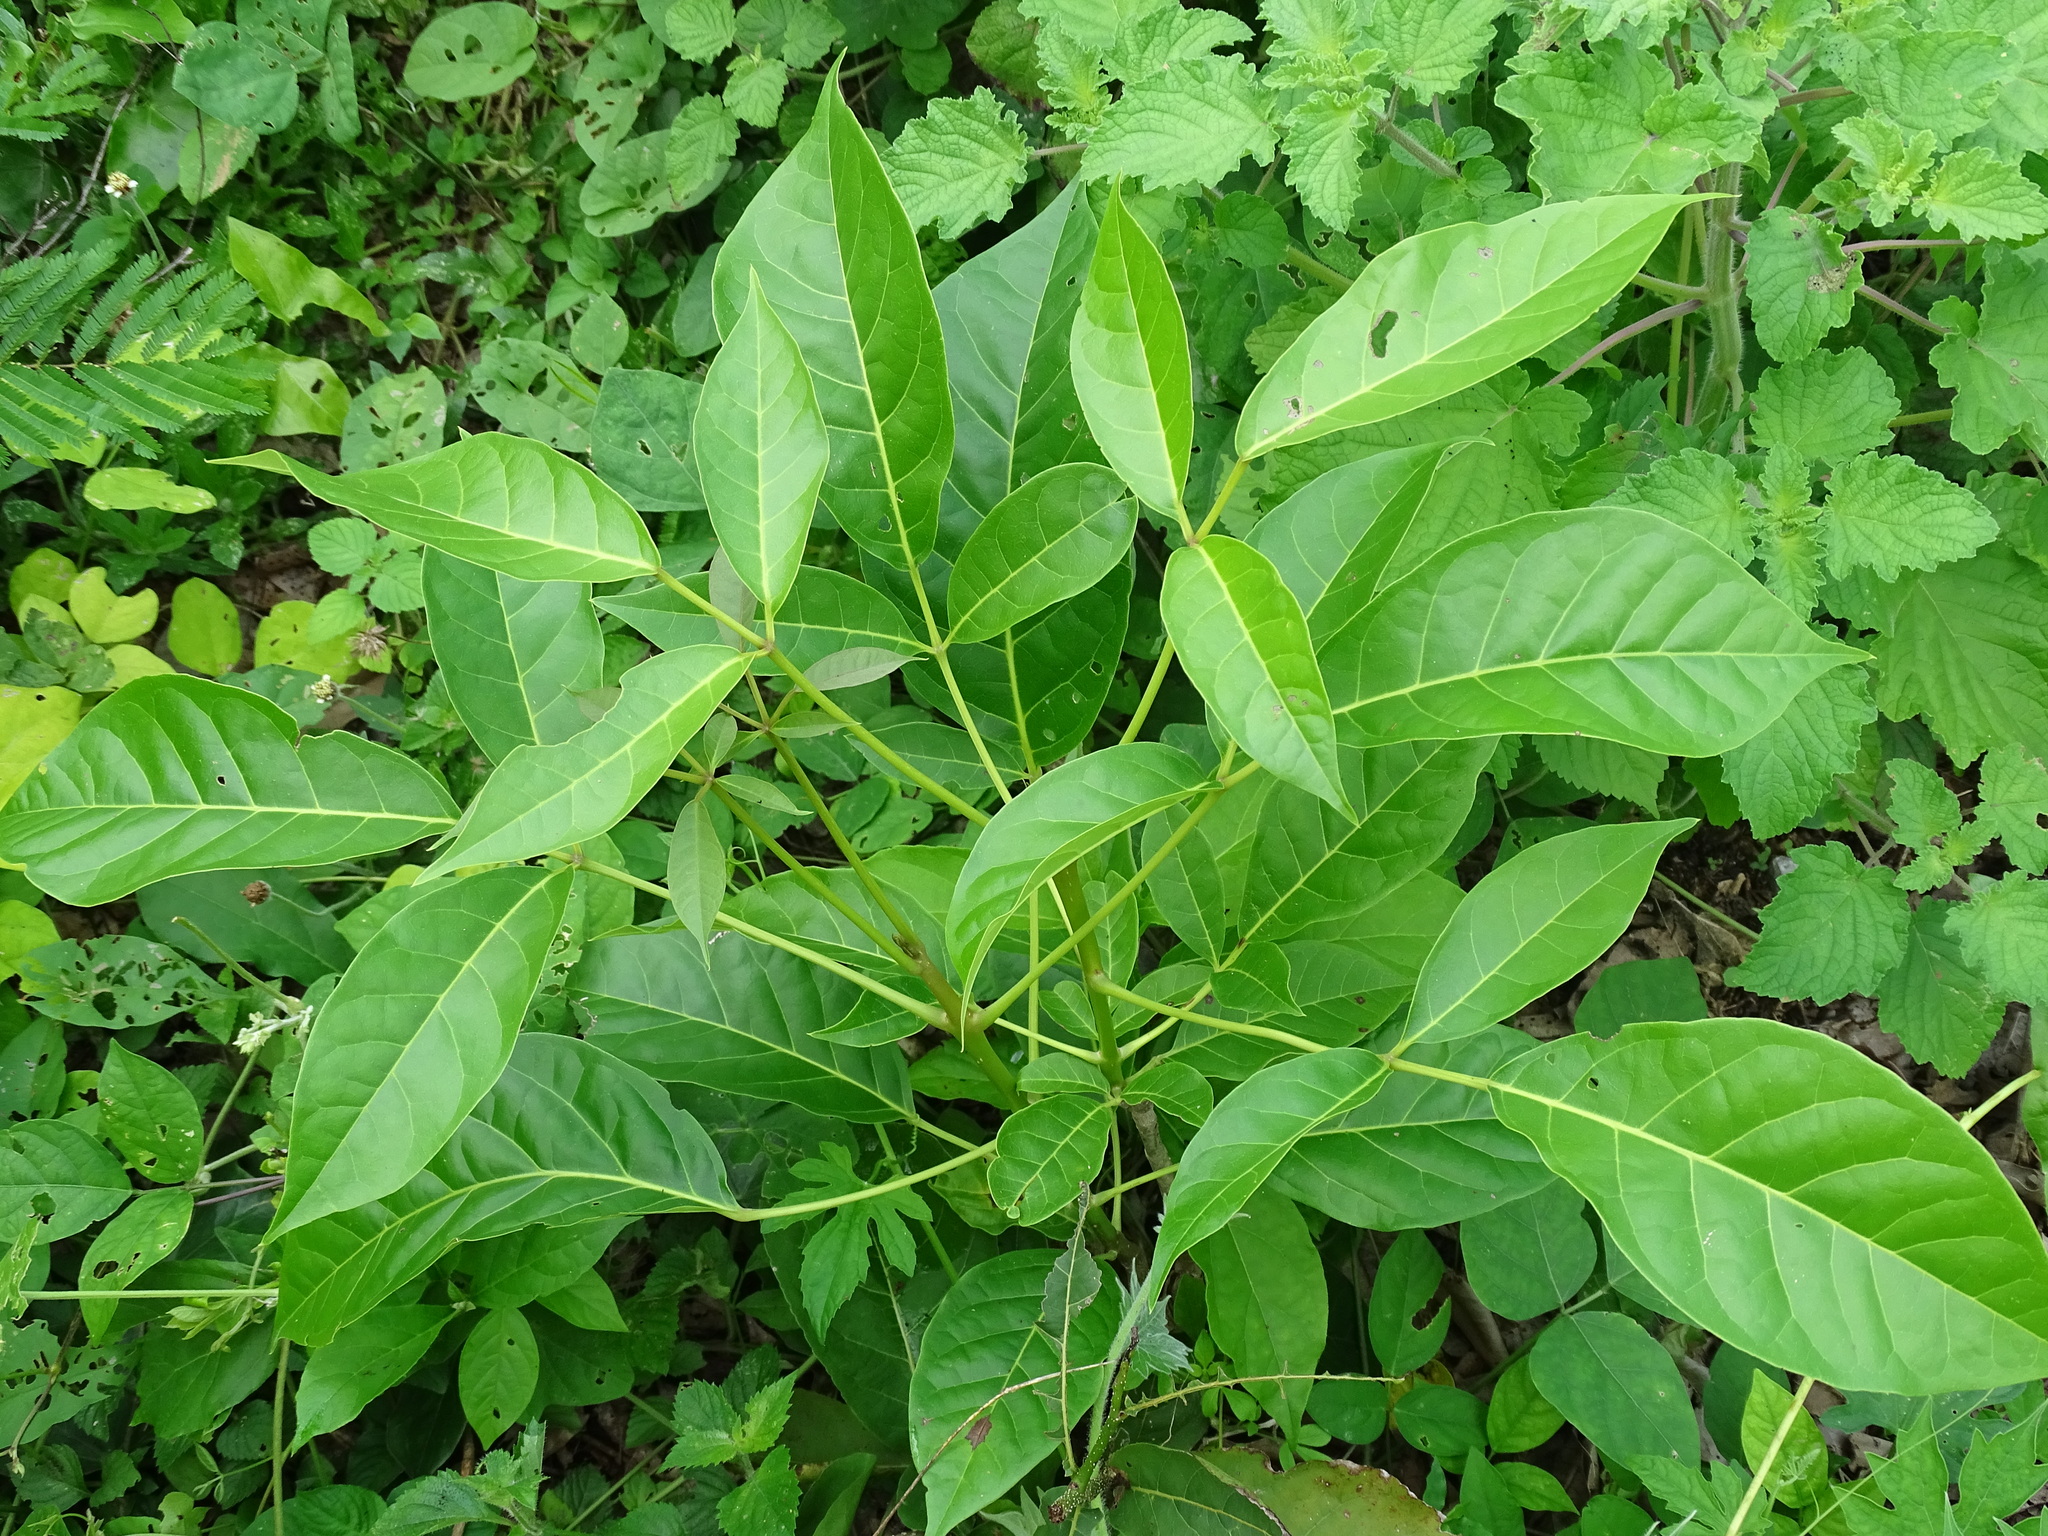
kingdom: Plantae
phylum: Tracheophyta
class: Magnoliopsida
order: Lamiales
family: Bignoniaceae
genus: Tabebuia
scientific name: Tabebuia rosea
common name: Pink poui
